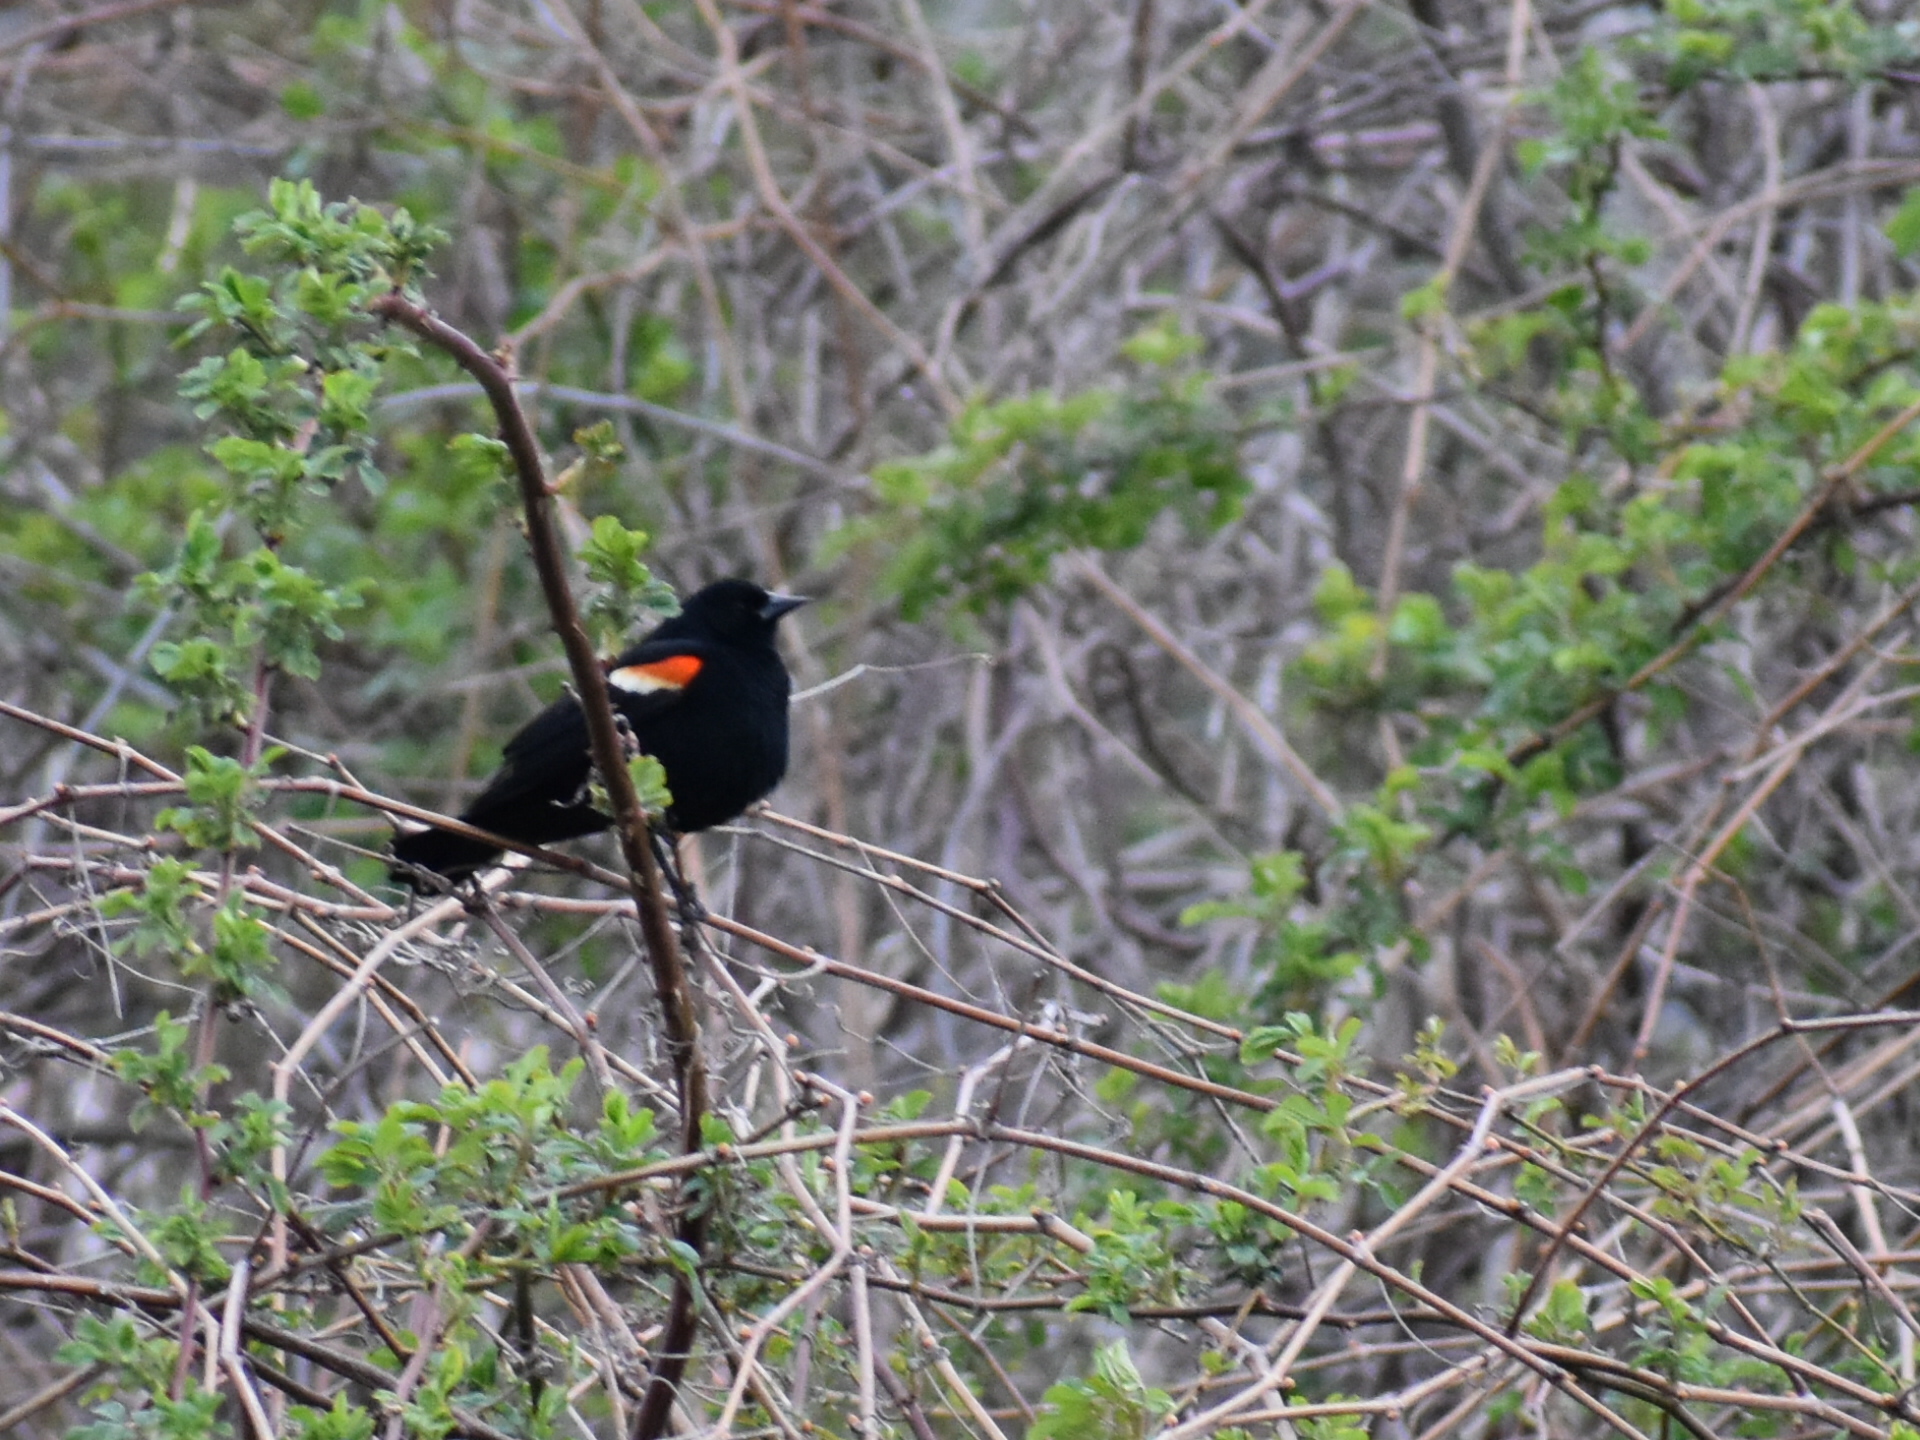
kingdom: Animalia
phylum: Chordata
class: Aves
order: Passeriformes
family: Icteridae
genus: Agelaius
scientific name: Agelaius phoeniceus
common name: Red-winged blackbird
